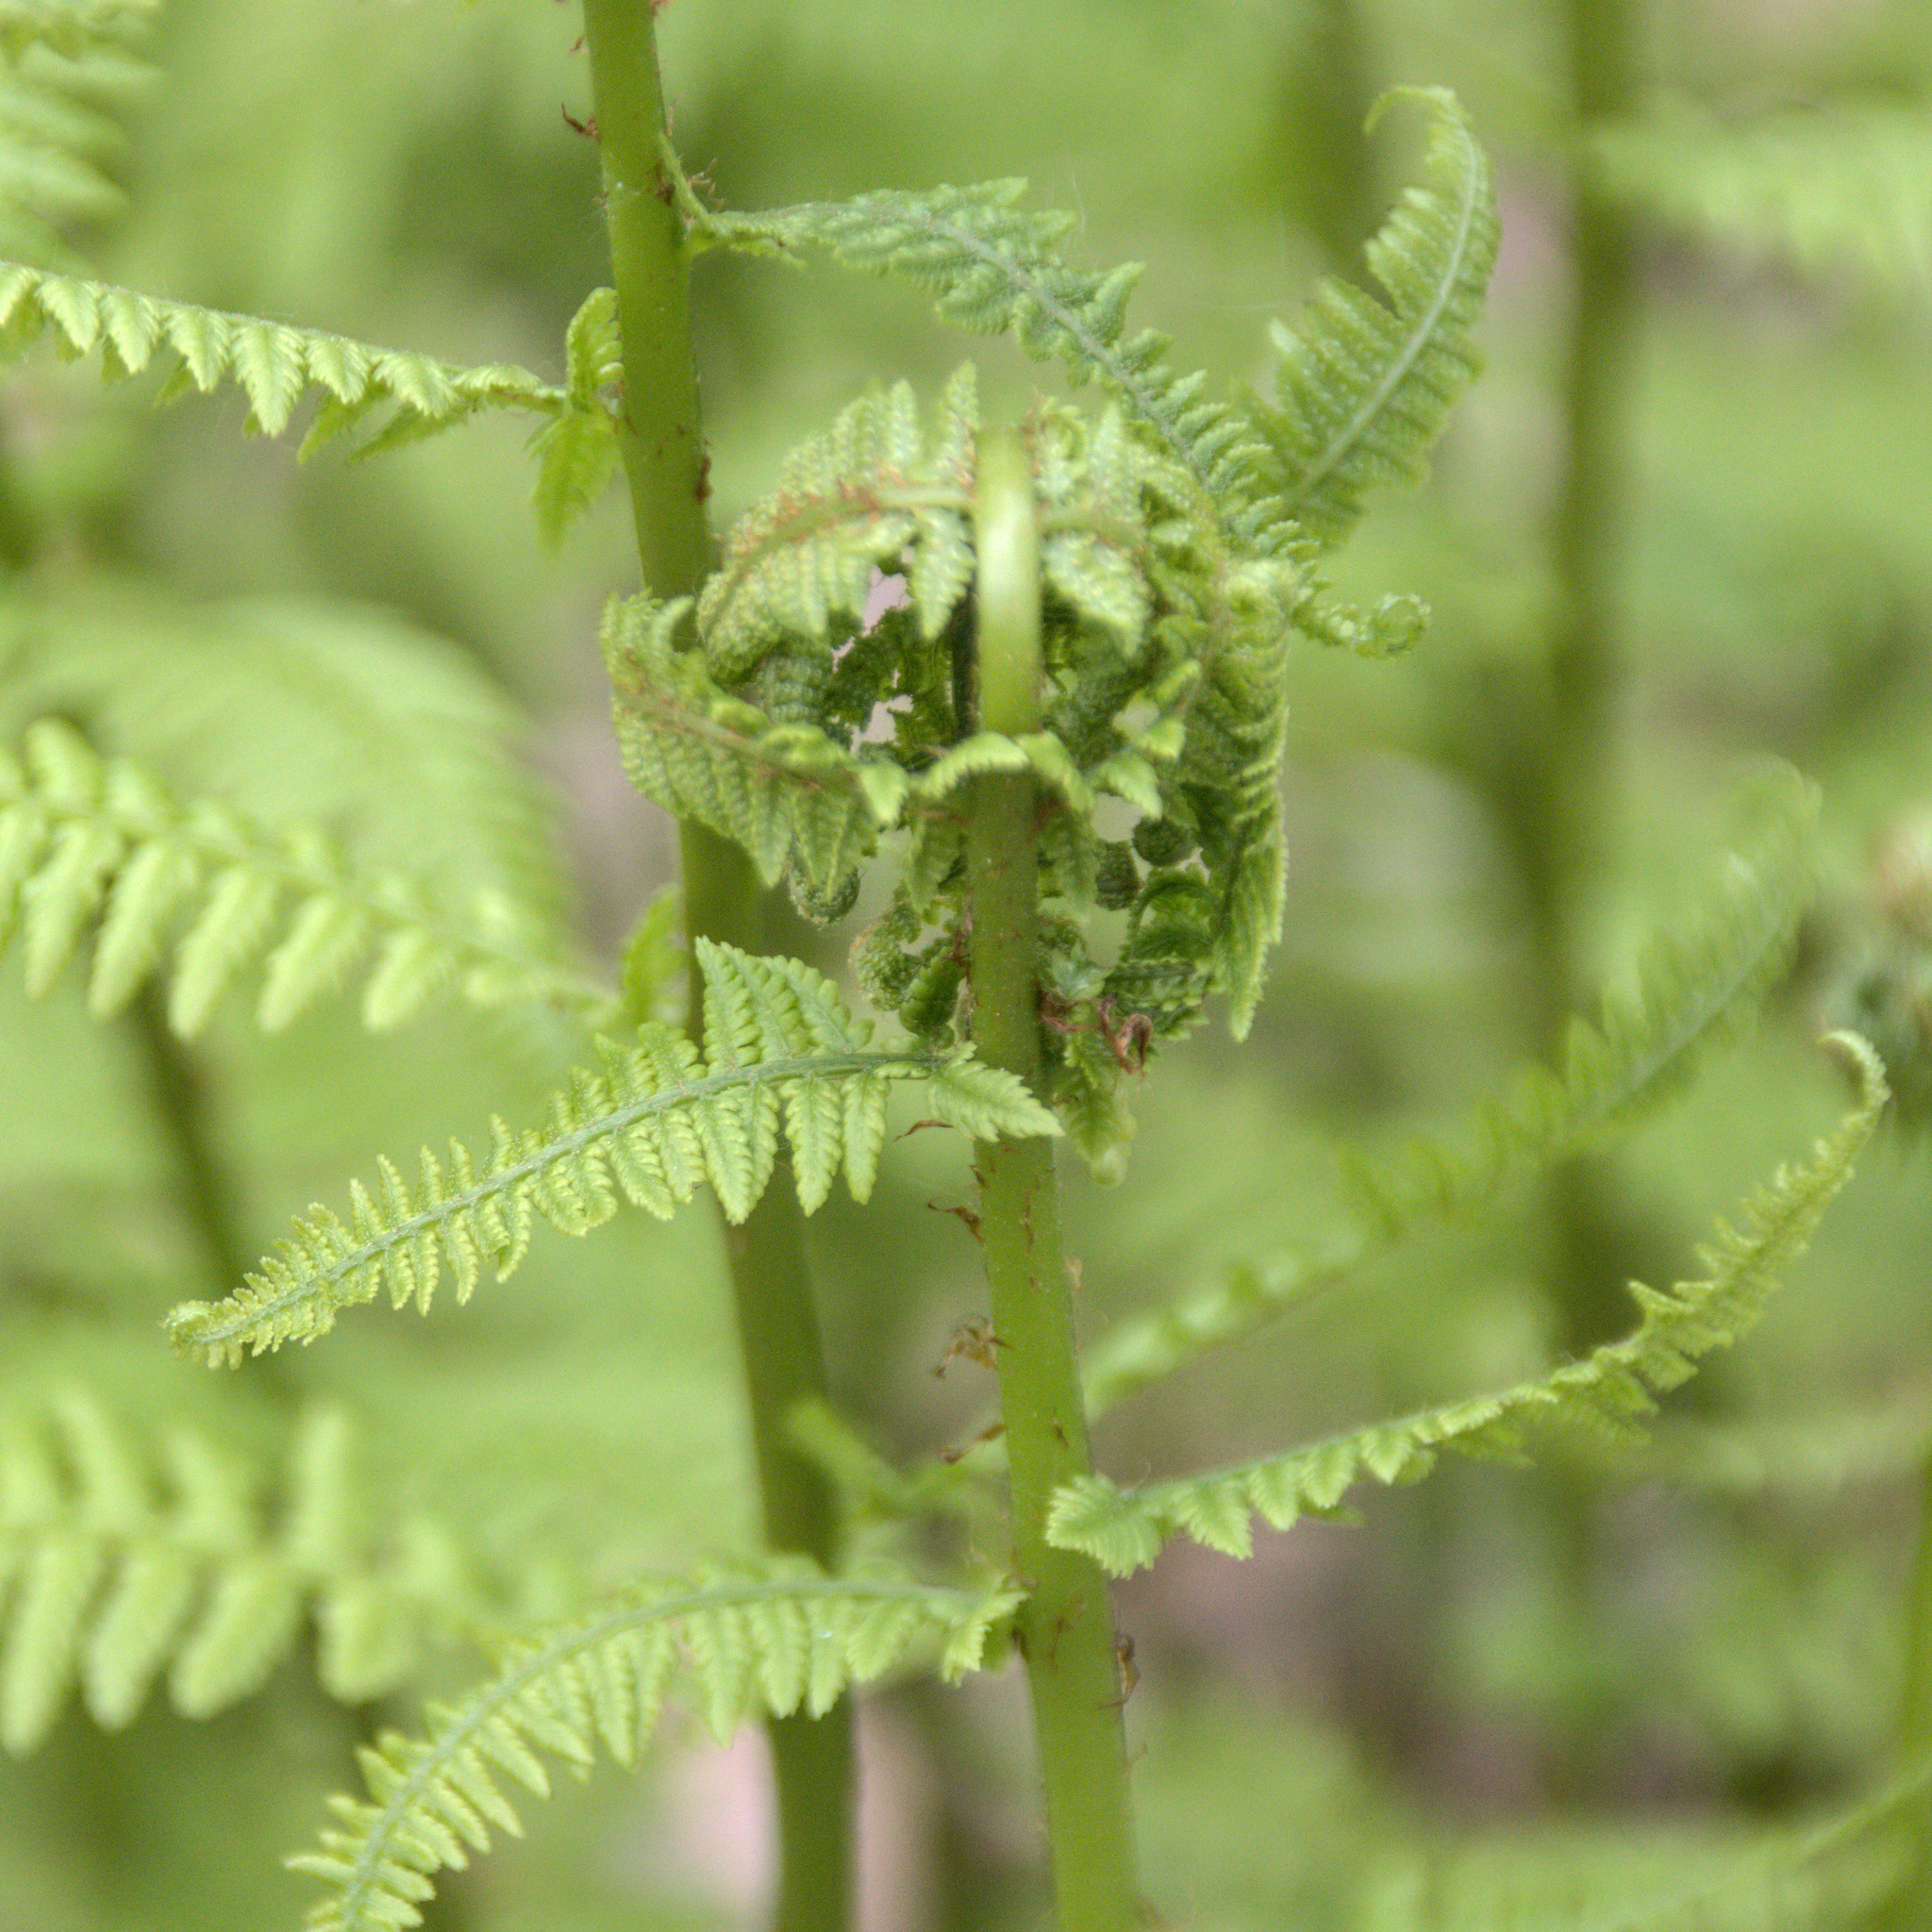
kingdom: Plantae
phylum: Tracheophyta
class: Polypodiopsida
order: Polypodiales
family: Athyriaceae
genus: Athyrium
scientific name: Athyrium filix-femina
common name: Lady fern
